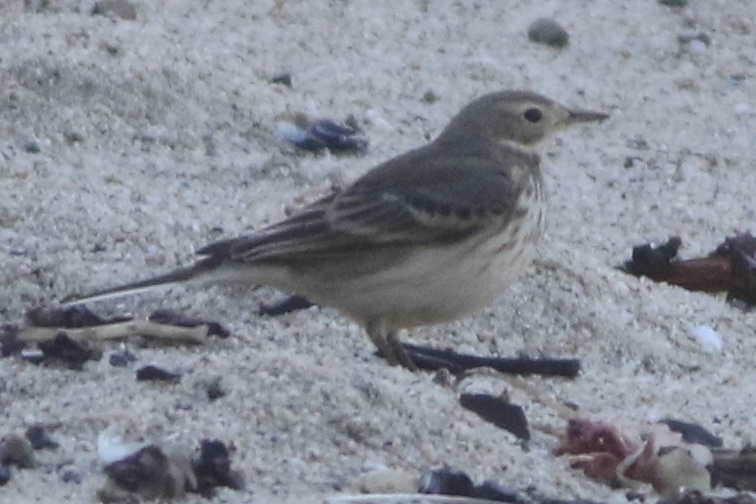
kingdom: Animalia
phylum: Chordata
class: Aves
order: Passeriformes
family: Motacillidae
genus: Anthus
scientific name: Anthus rubescens
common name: Buff-bellied pipit
